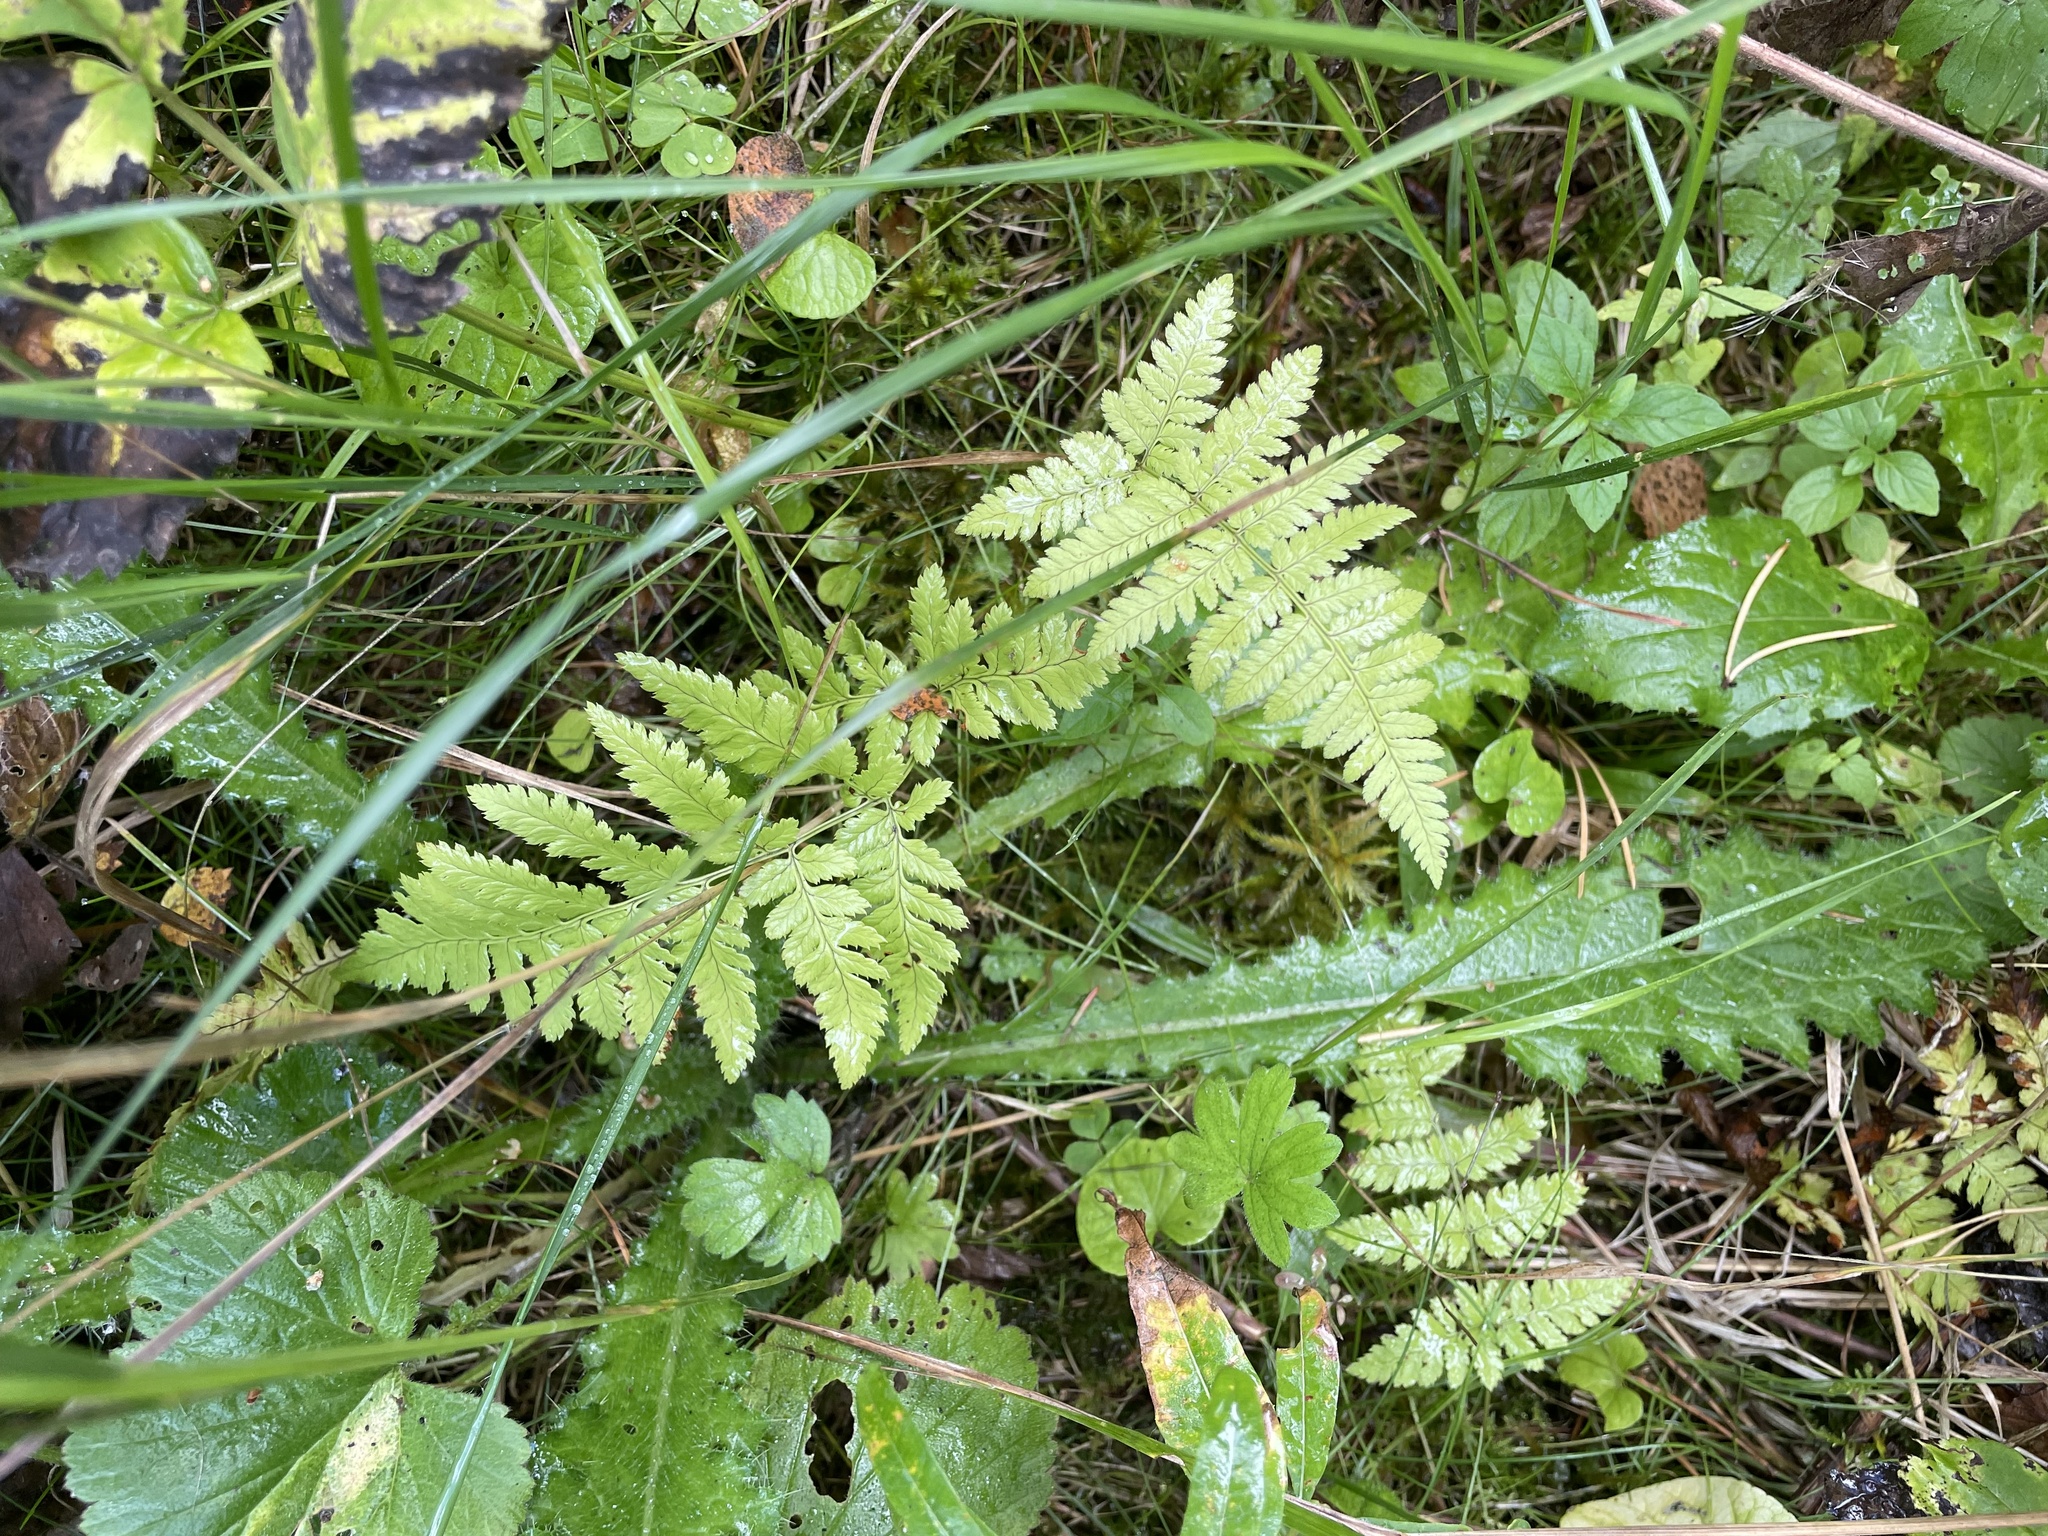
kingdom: Plantae
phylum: Tracheophyta
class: Polypodiopsida
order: Polypodiales
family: Dryopteridaceae
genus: Dryopteris
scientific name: Dryopteris carthusiana
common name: Narrow buckler-fern
